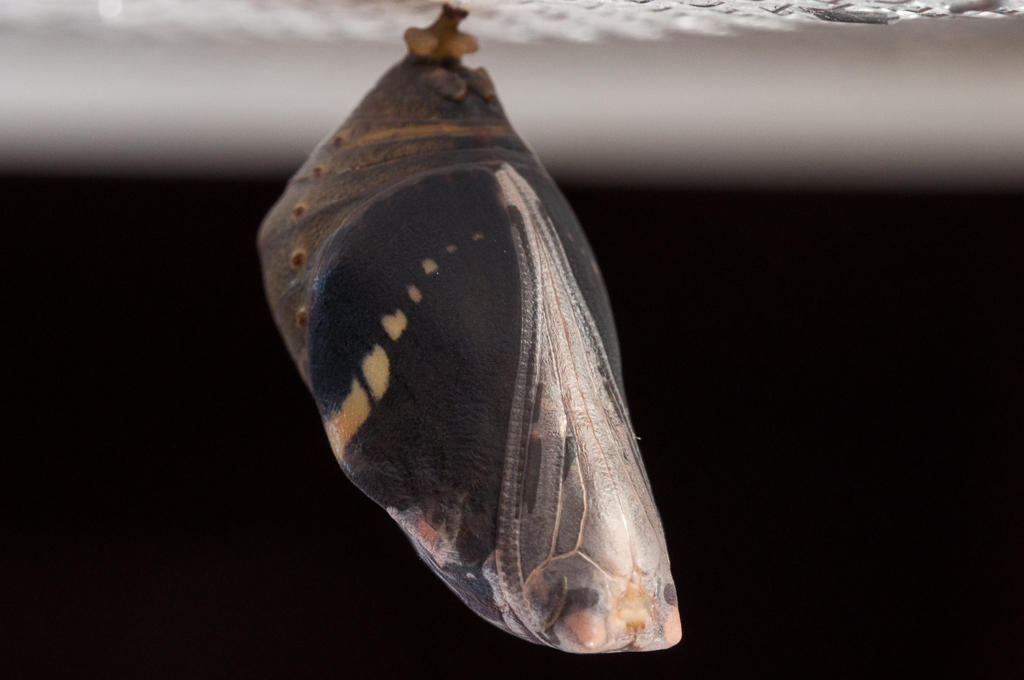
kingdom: Animalia
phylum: Arthropoda
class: Insecta
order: Lepidoptera
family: Nymphalidae
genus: Charaxes
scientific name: Charaxes brutus
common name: White-barred charaxes
